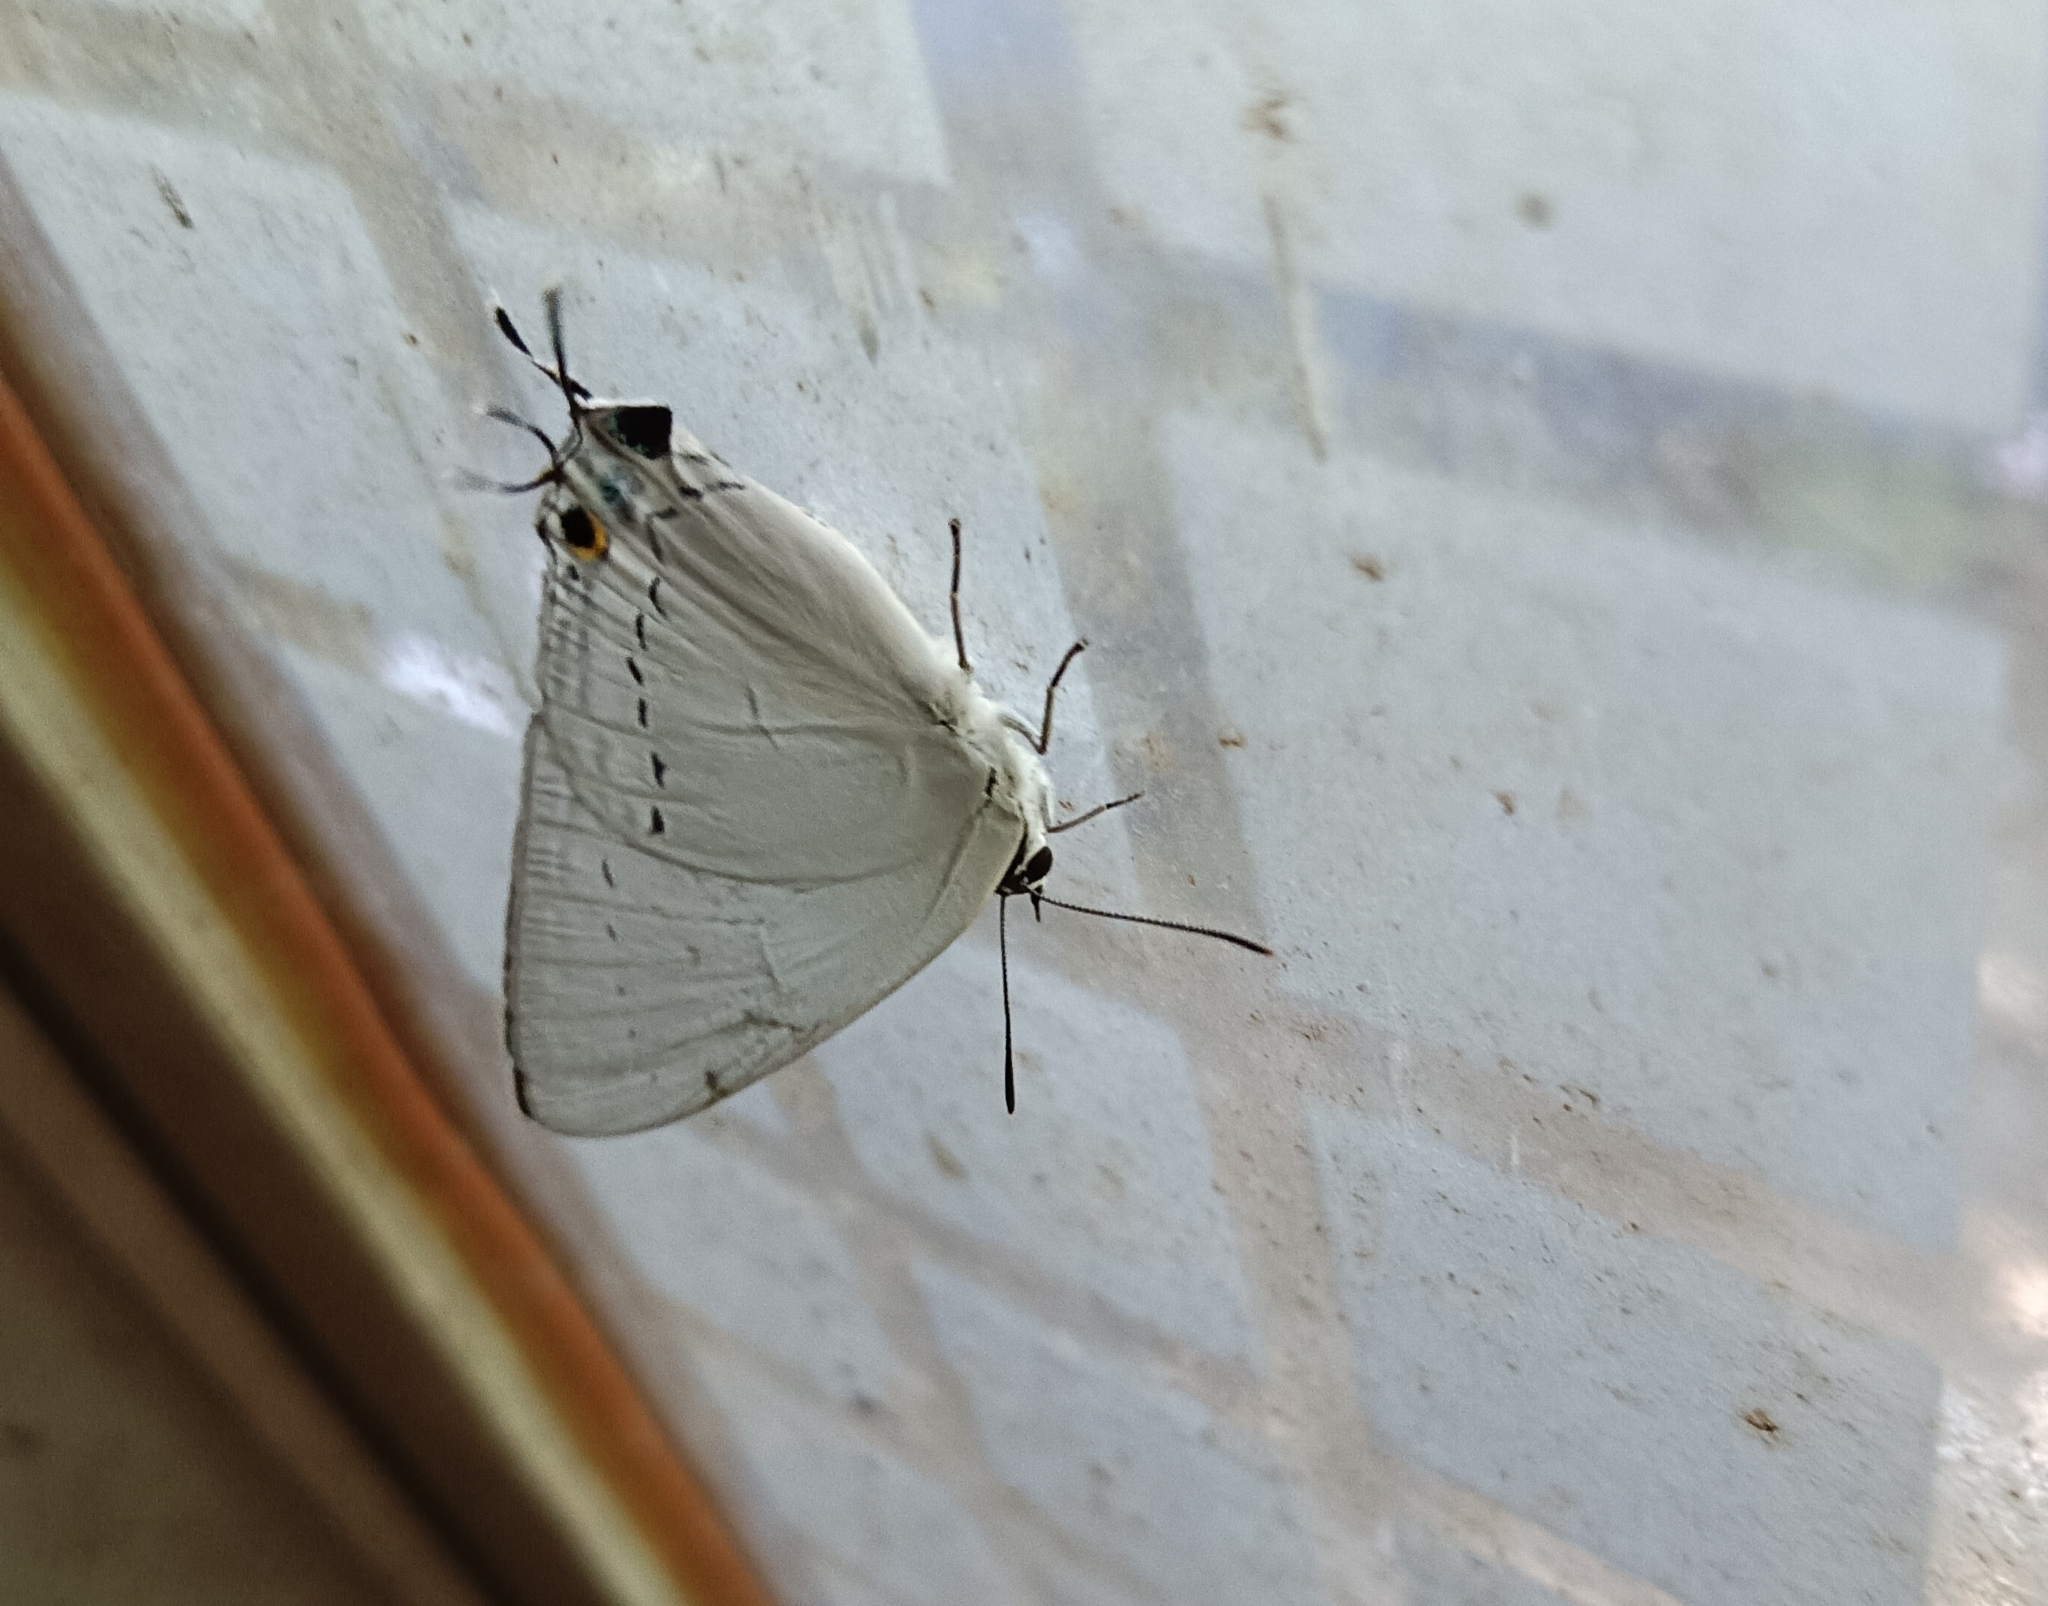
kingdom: Animalia
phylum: Arthropoda
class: Insecta
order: Lepidoptera
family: Lycaenidae
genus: Tajuria
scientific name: Tajuria cippus
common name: Peacock royal
